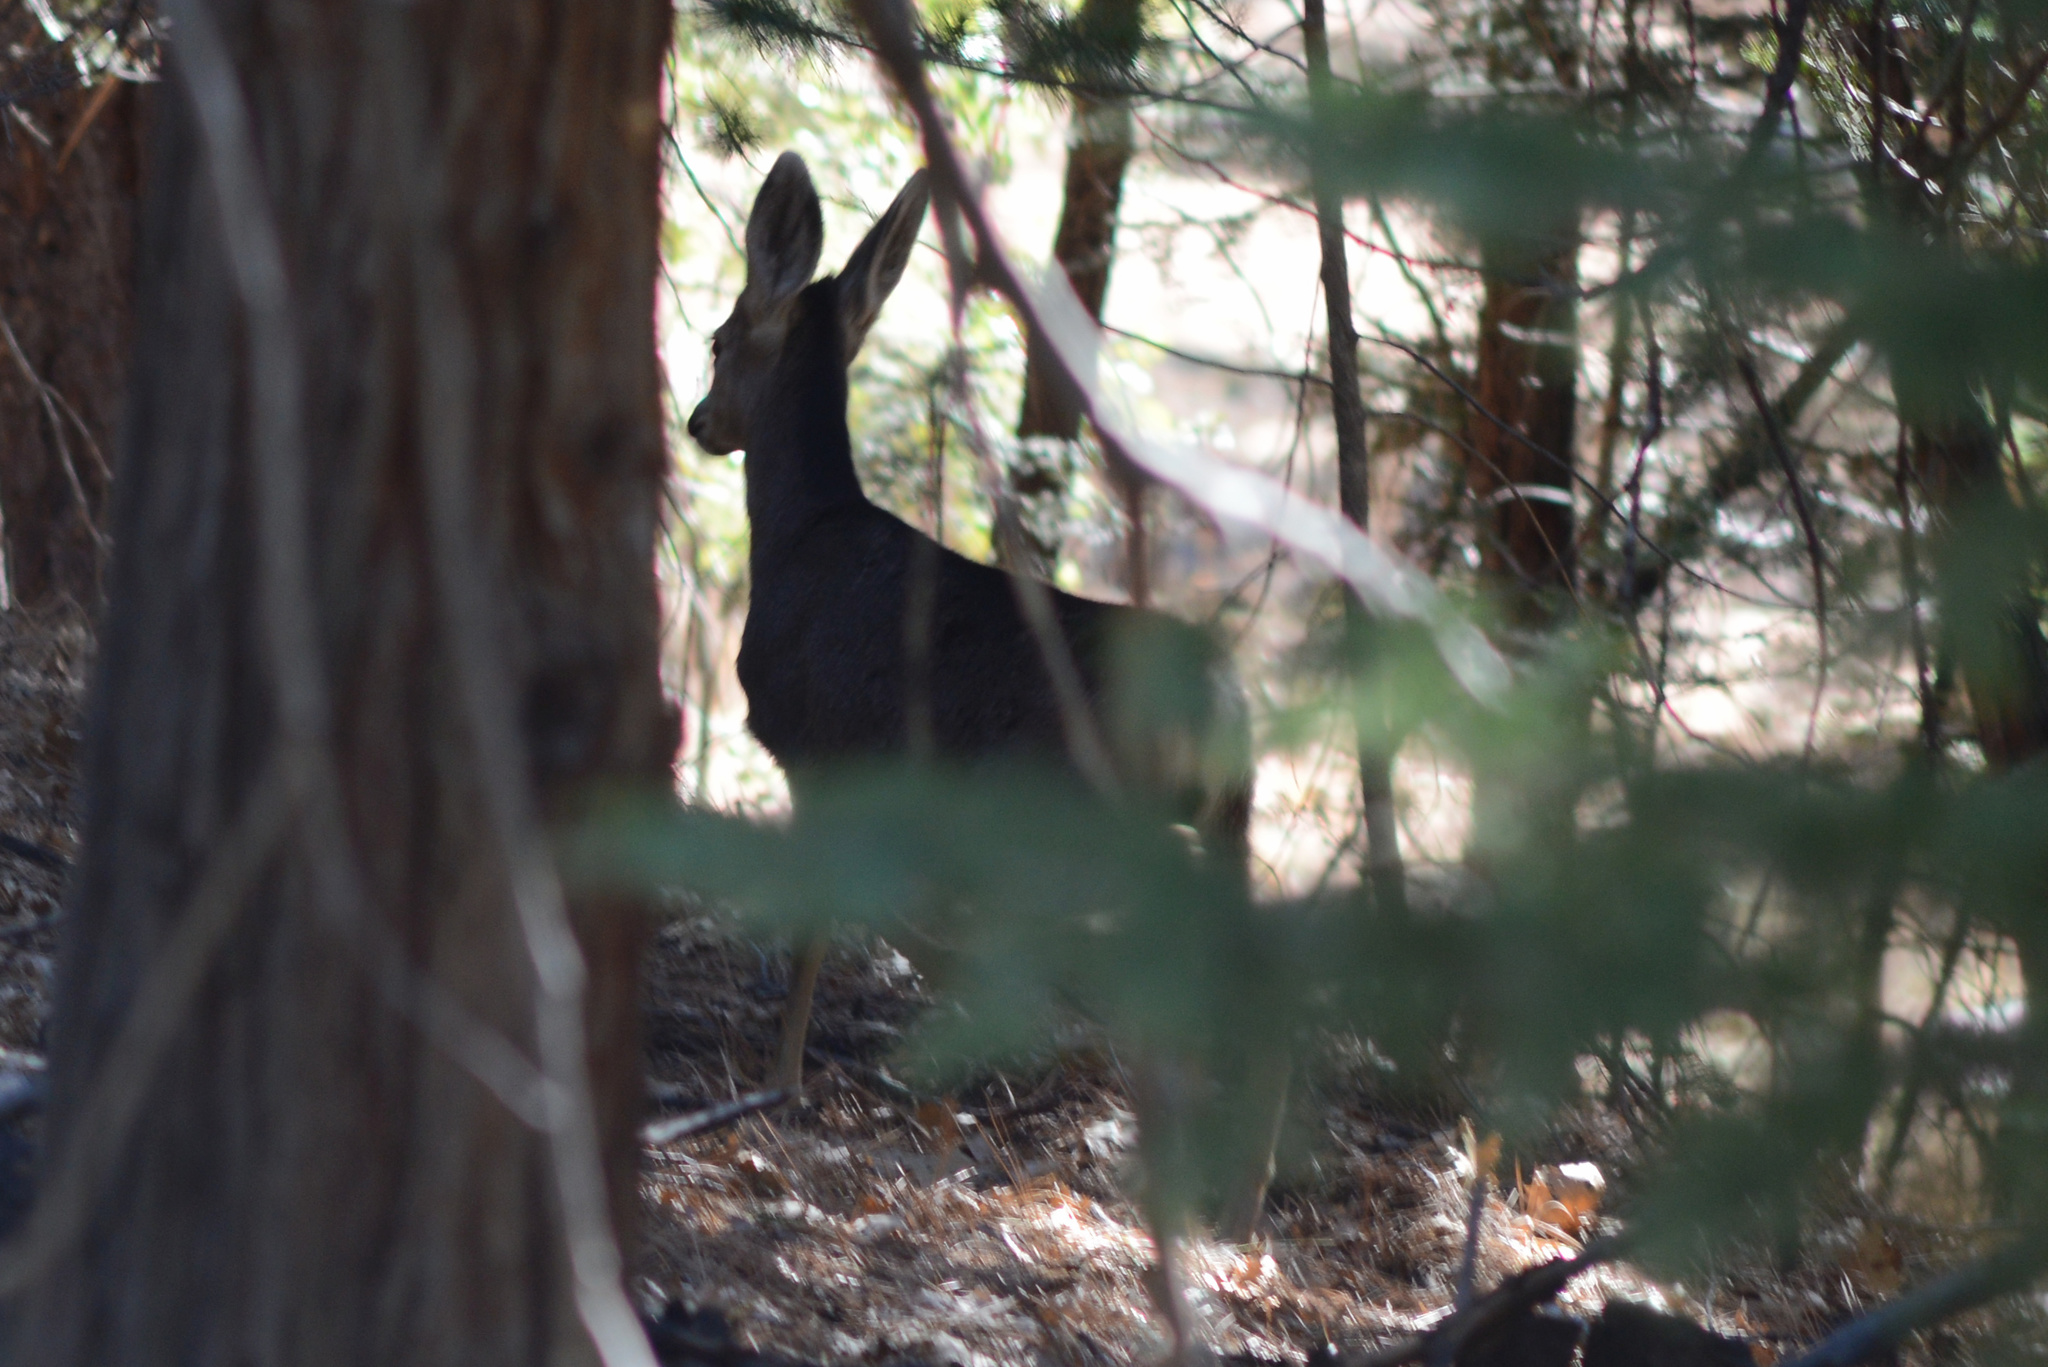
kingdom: Animalia
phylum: Chordata
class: Mammalia
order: Artiodactyla
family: Cervidae
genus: Odocoileus
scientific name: Odocoileus hemionus
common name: Mule deer
